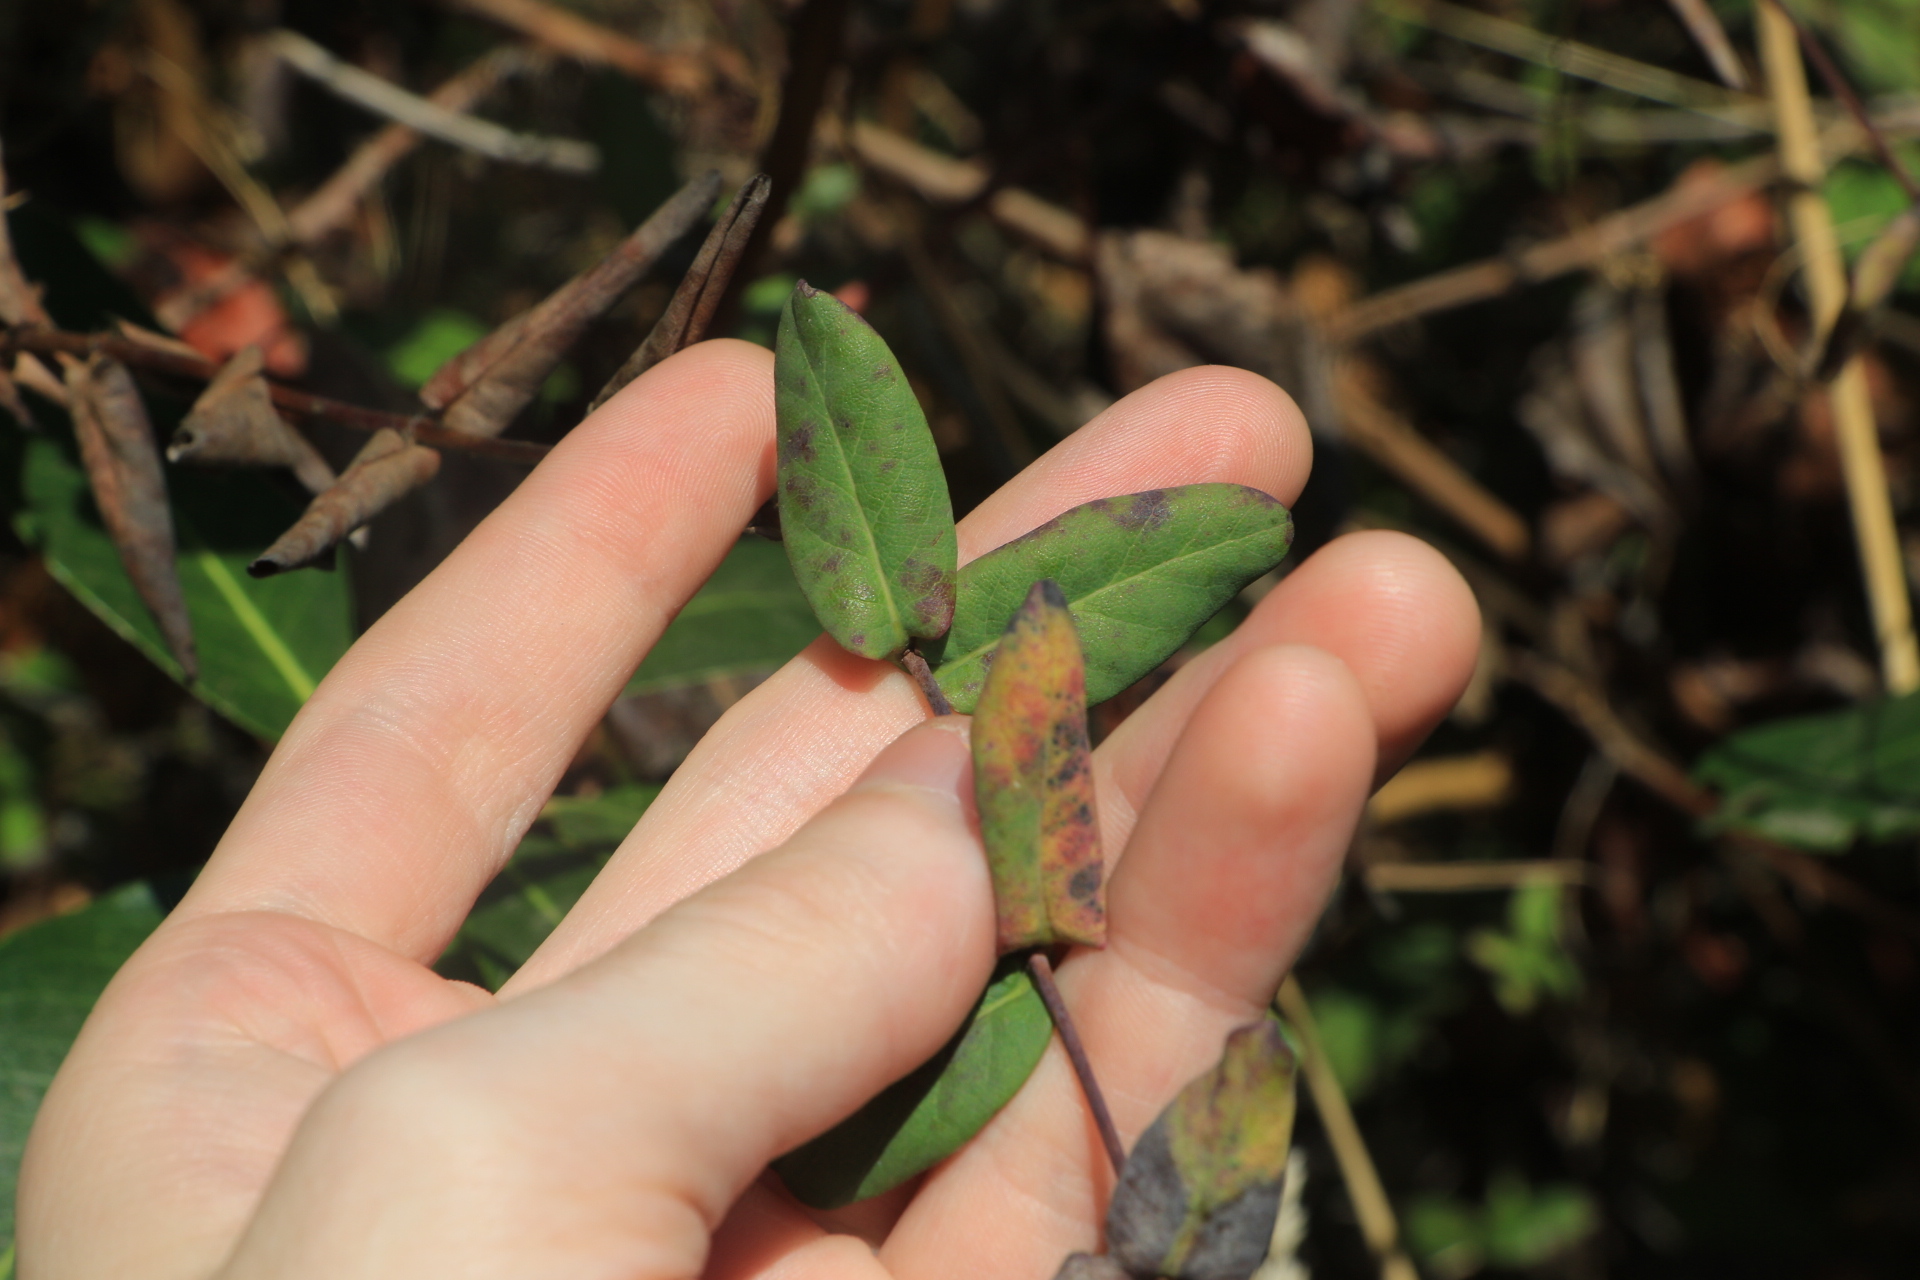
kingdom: Plantae
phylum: Tracheophyta
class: Magnoliopsida
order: Dipsacales
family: Caprifoliaceae
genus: Lonicera
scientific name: Lonicera hispidula
